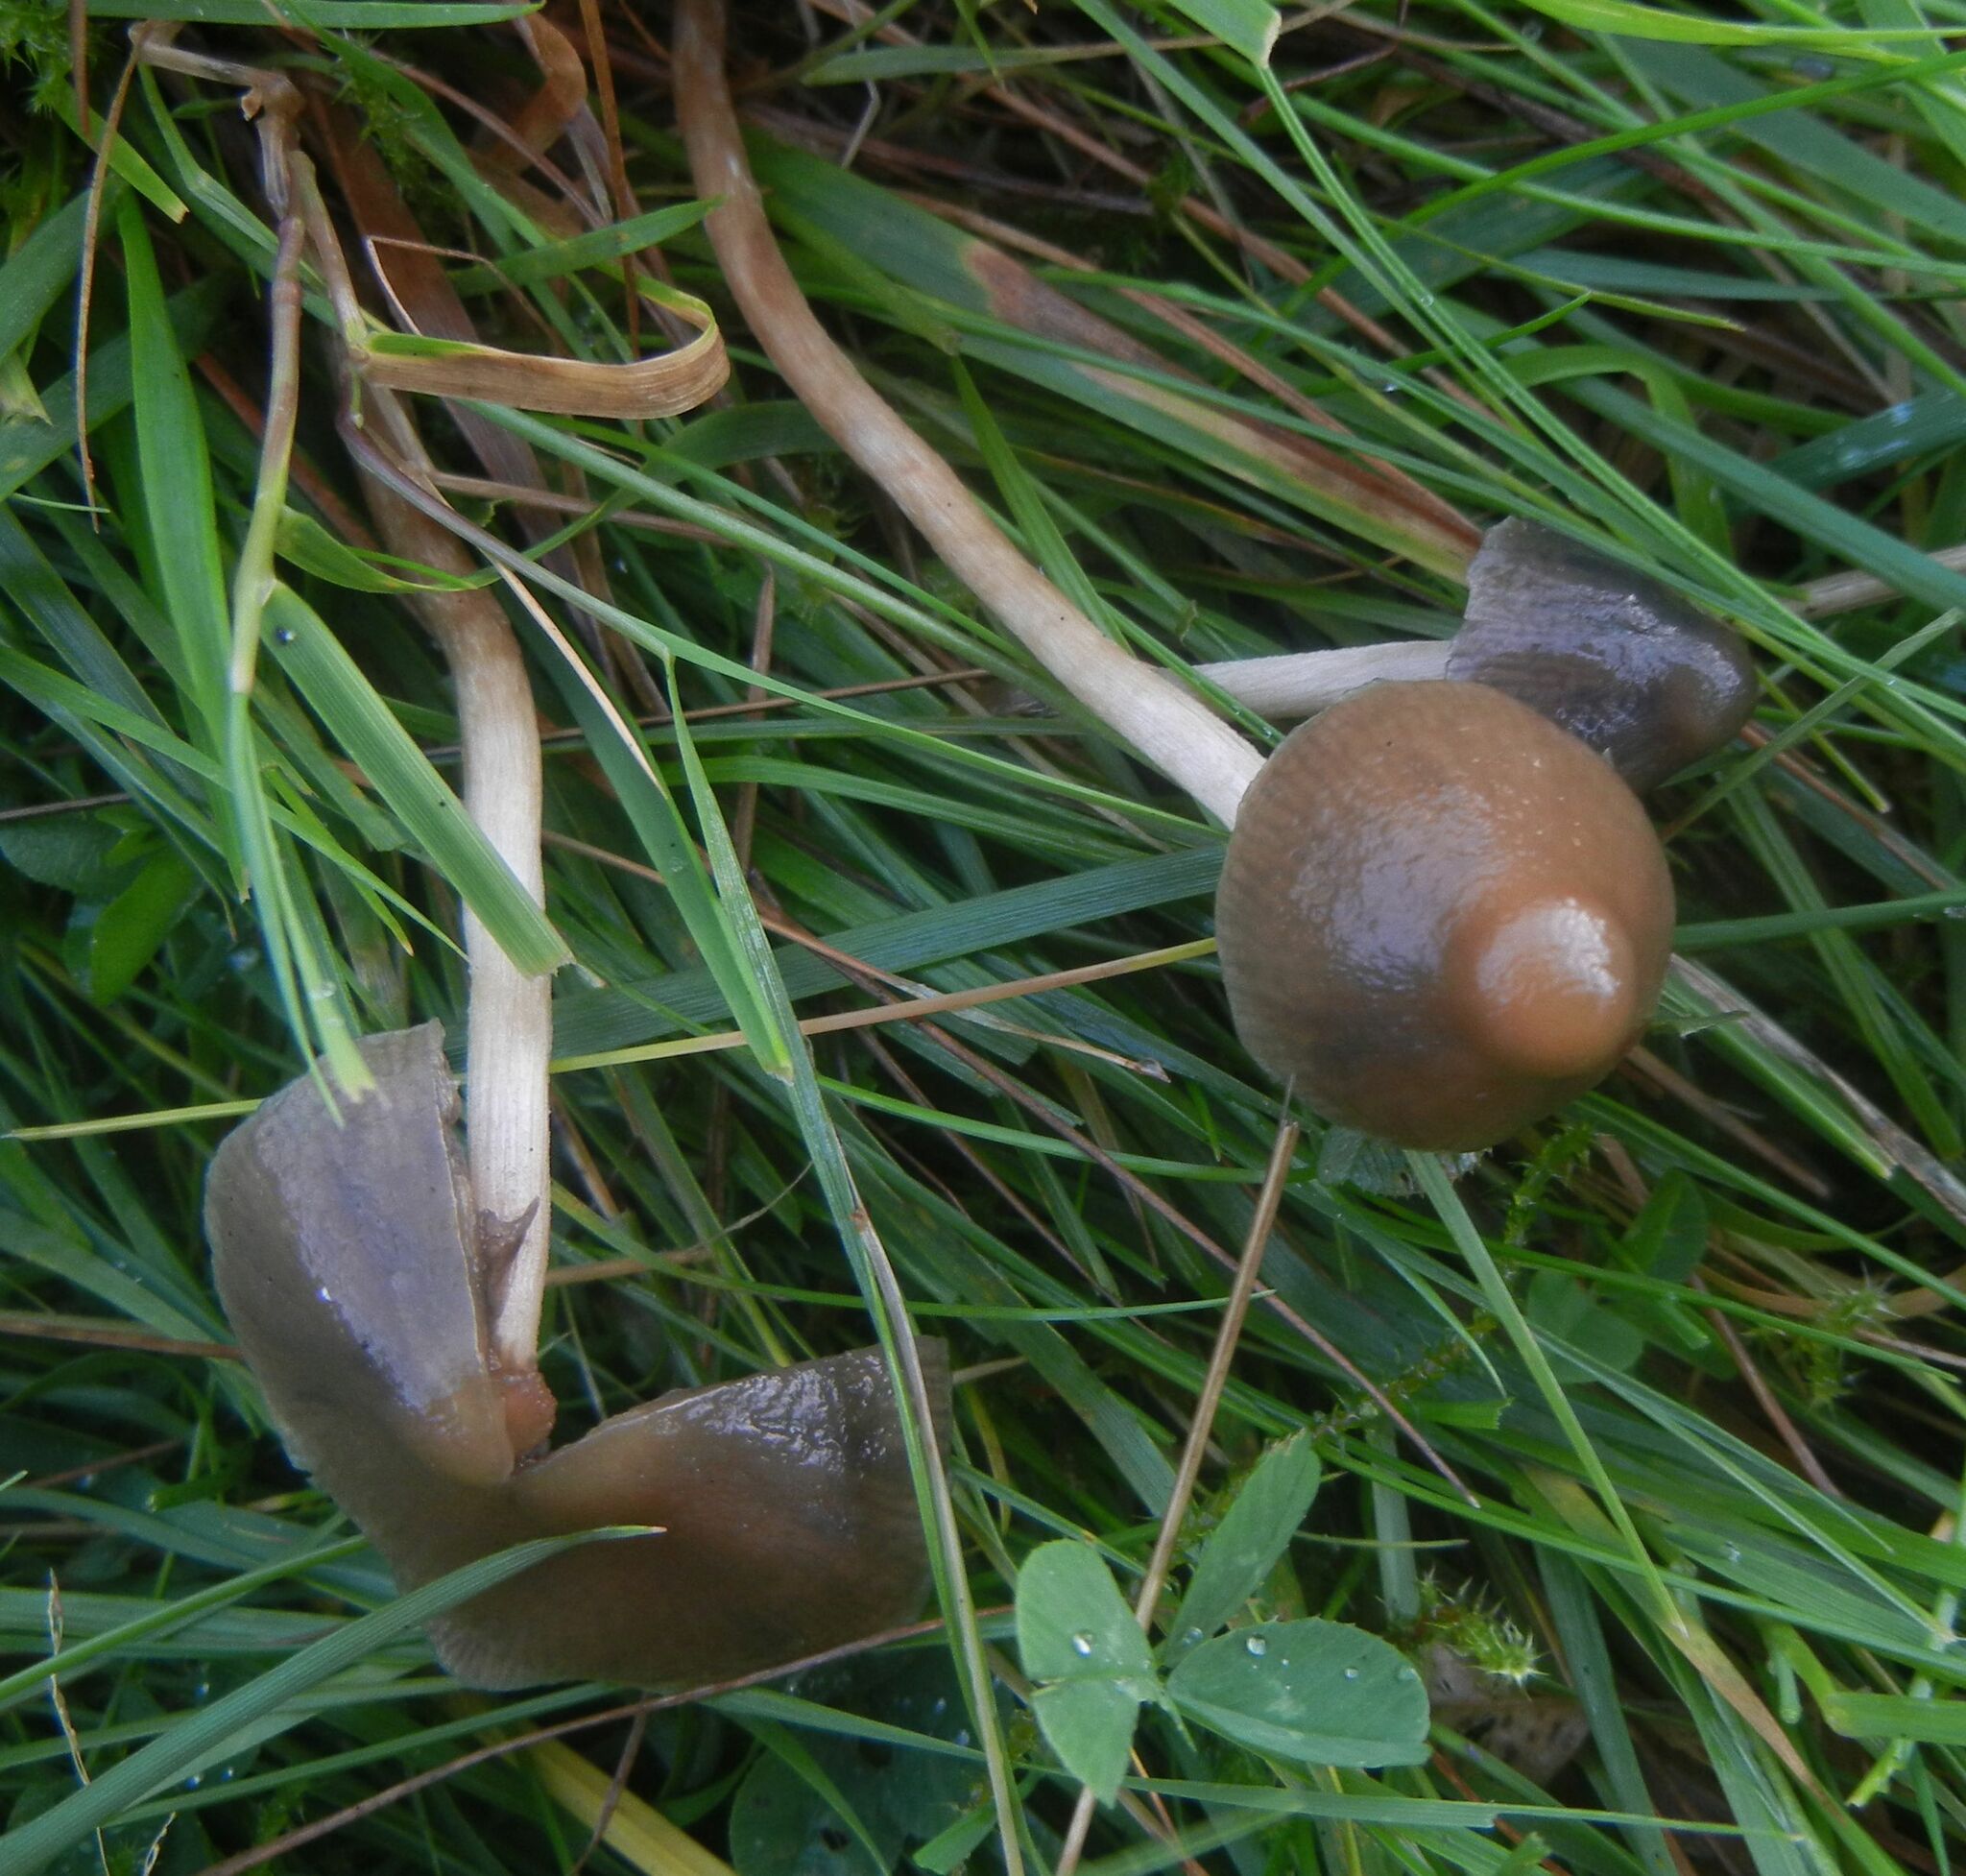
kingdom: Fungi
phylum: Basidiomycota
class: Agaricomycetes
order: Agaricales
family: Hymenogastraceae
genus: Psilocybe
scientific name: Psilocybe semilanceata
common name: Liberty cap
